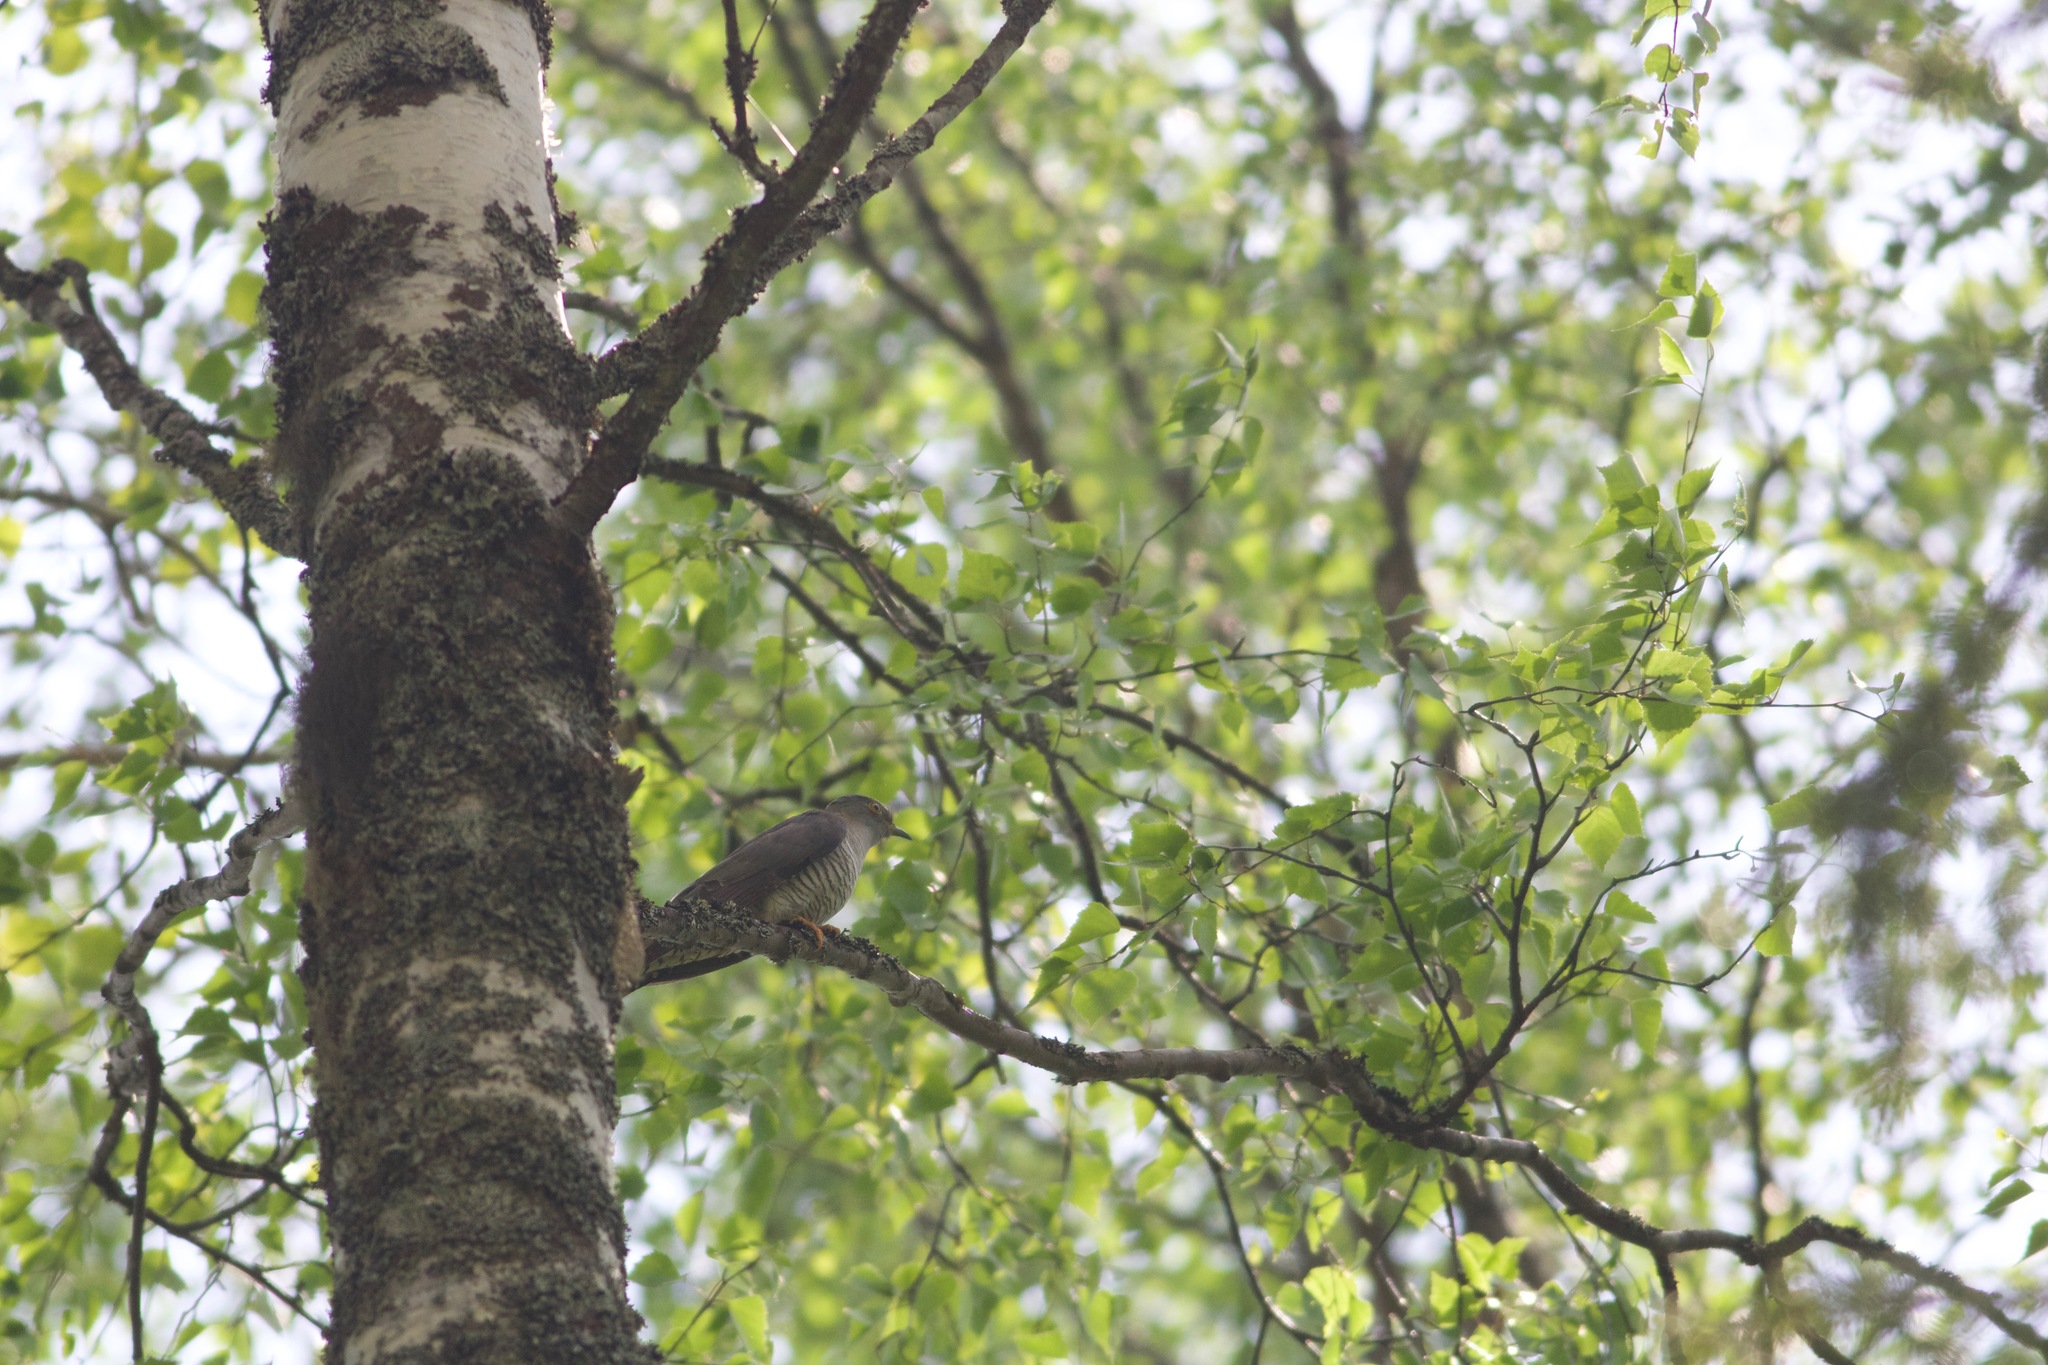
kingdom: Animalia
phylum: Chordata
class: Aves
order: Cuculiformes
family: Cuculidae
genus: Cuculus
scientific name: Cuculus canorus
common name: Common cuckoo
